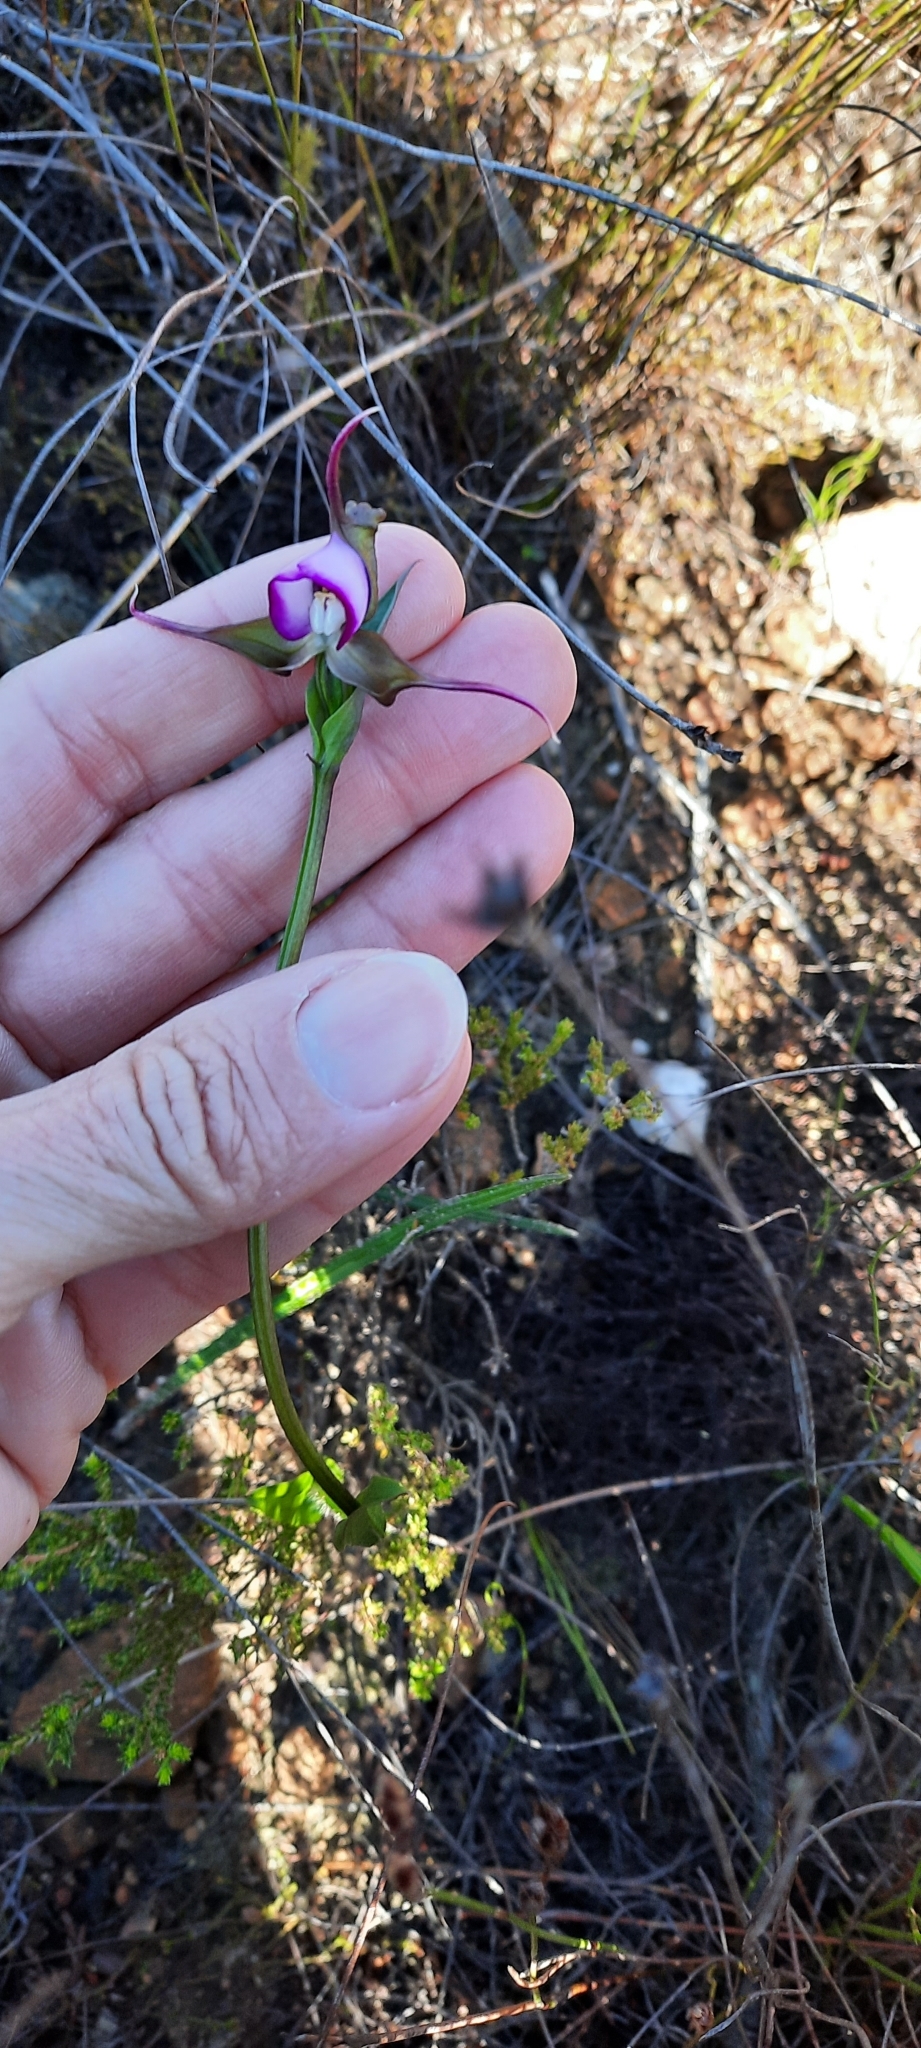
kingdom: Plantae
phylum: Tracheophyta
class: Liliopsida
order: Asparagales
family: Orchidaceae
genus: Disperis
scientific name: Disperis capensis
